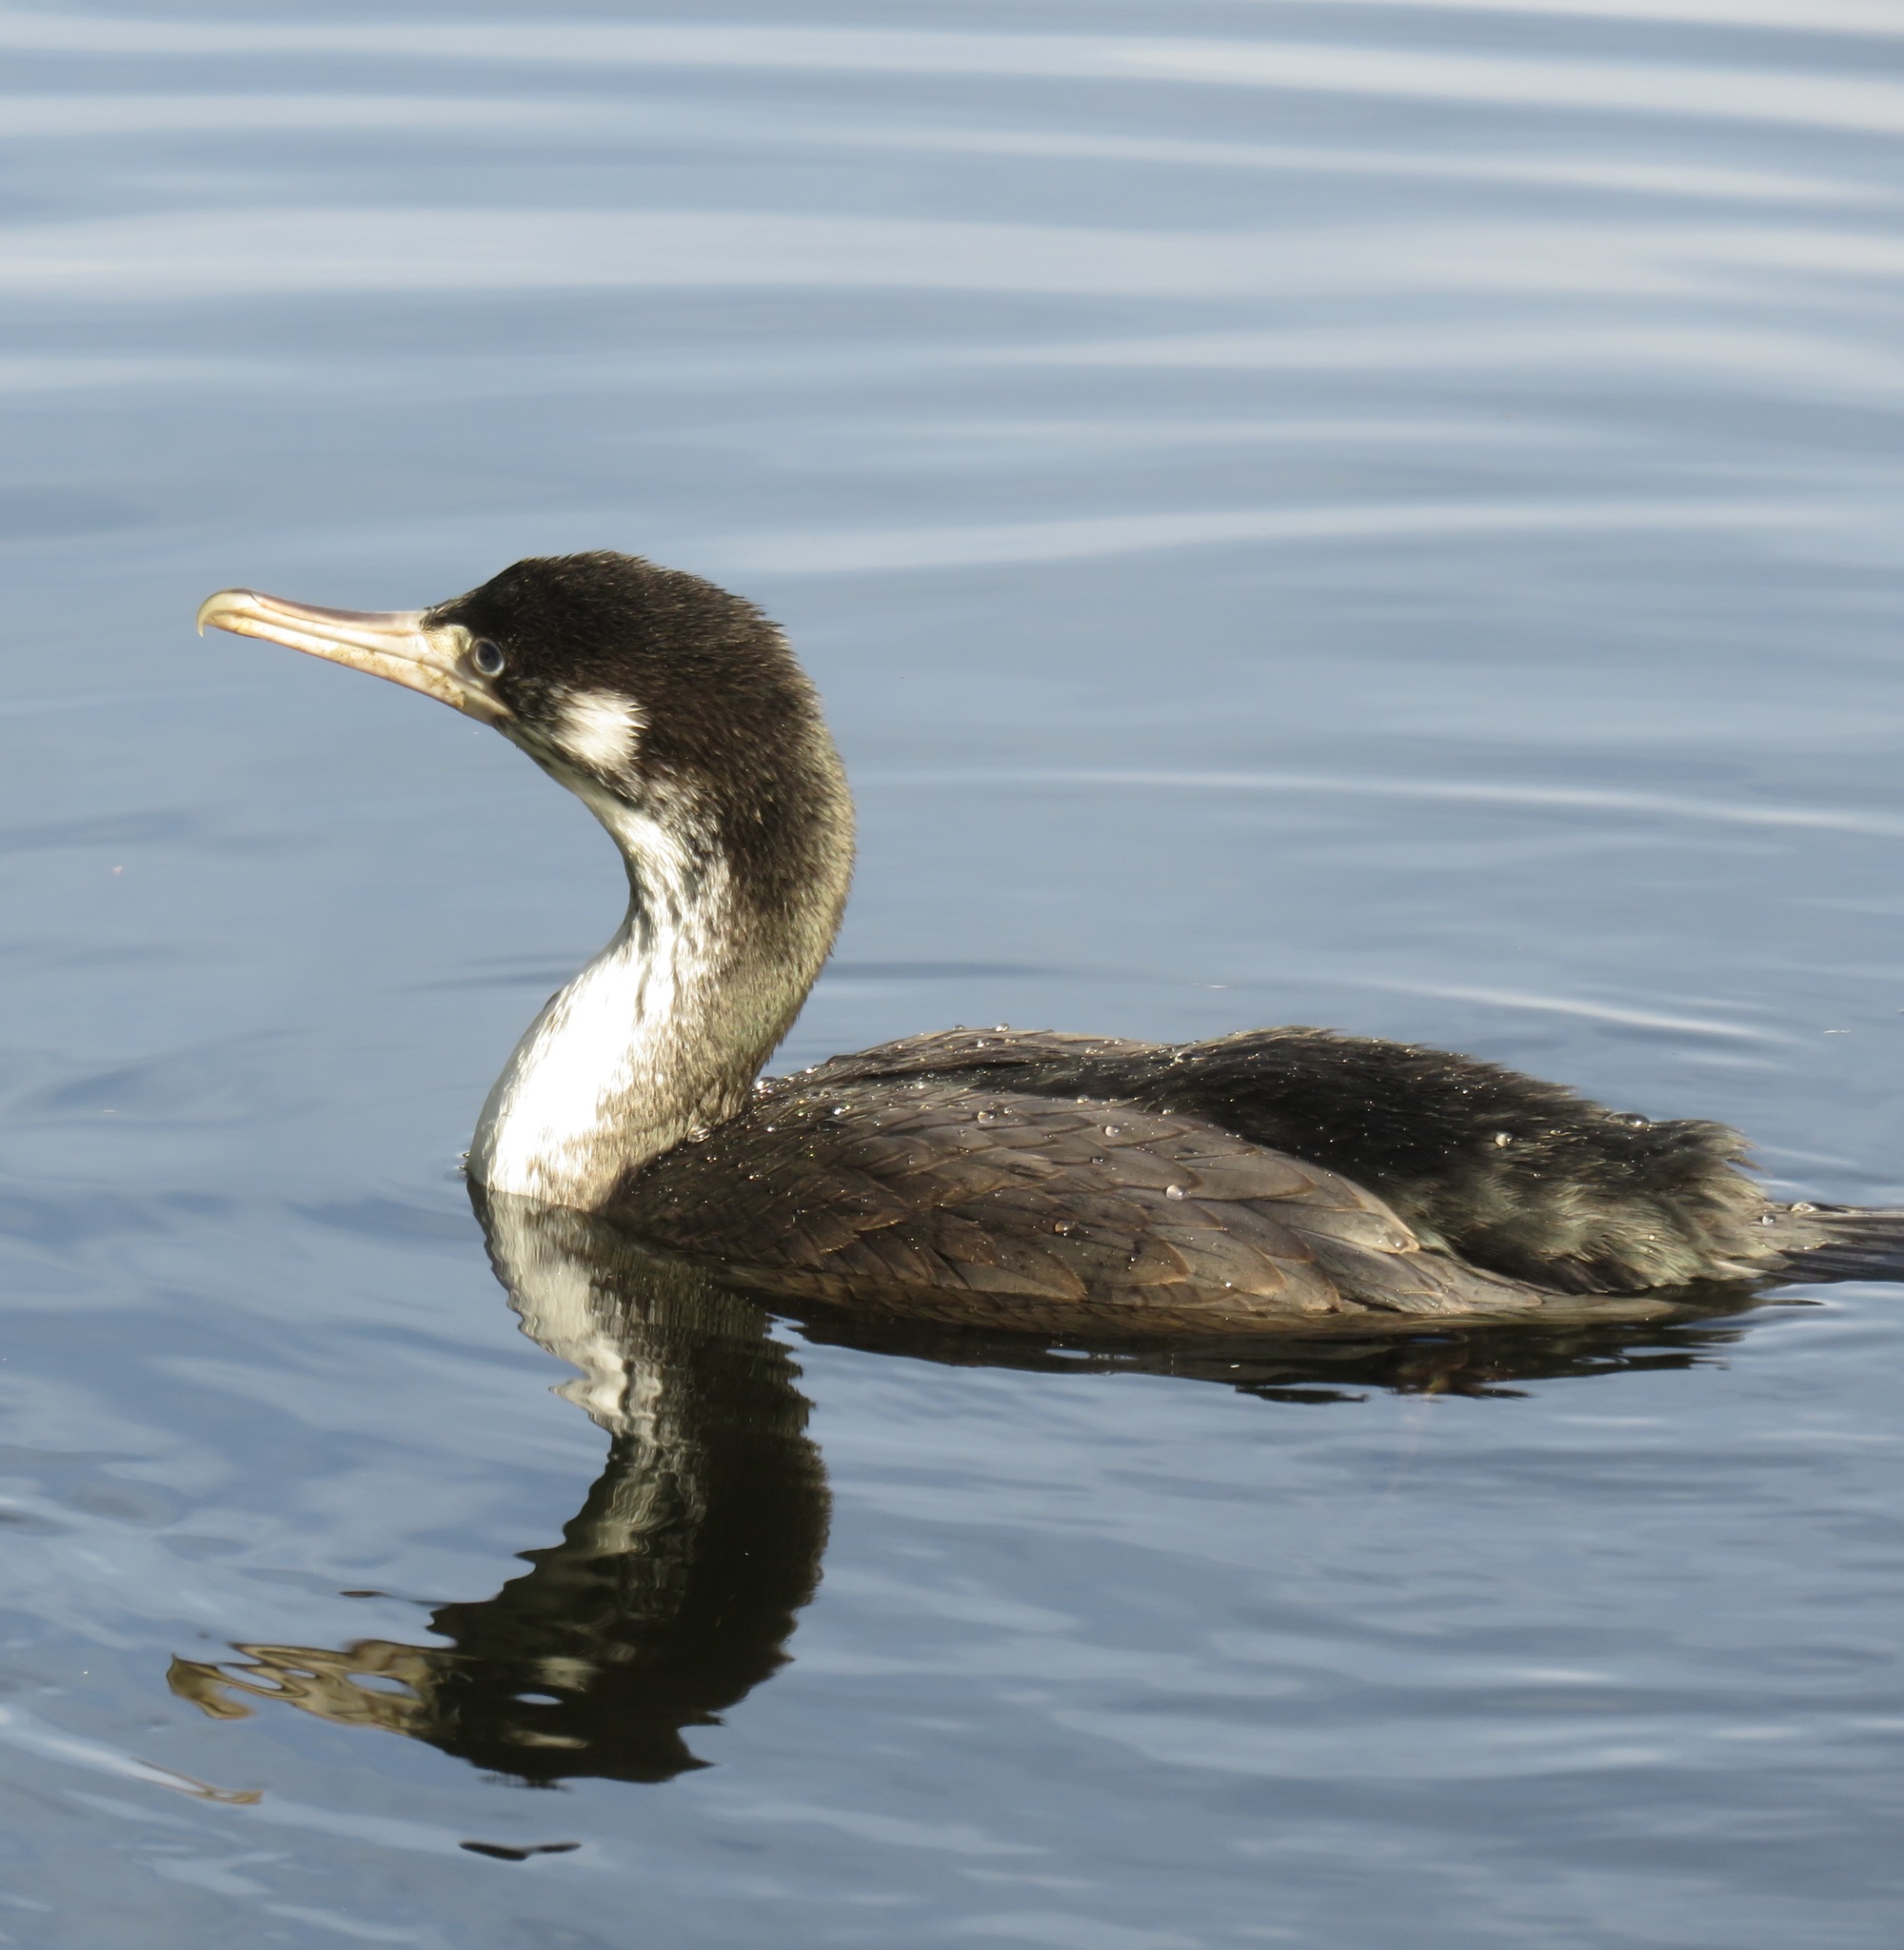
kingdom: Animalia
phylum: Chordata
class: Aves
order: Suliformes
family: Phalacrocoracidae
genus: Phalacrocorax
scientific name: Phalacrocorax varius
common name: Pied cormorant
